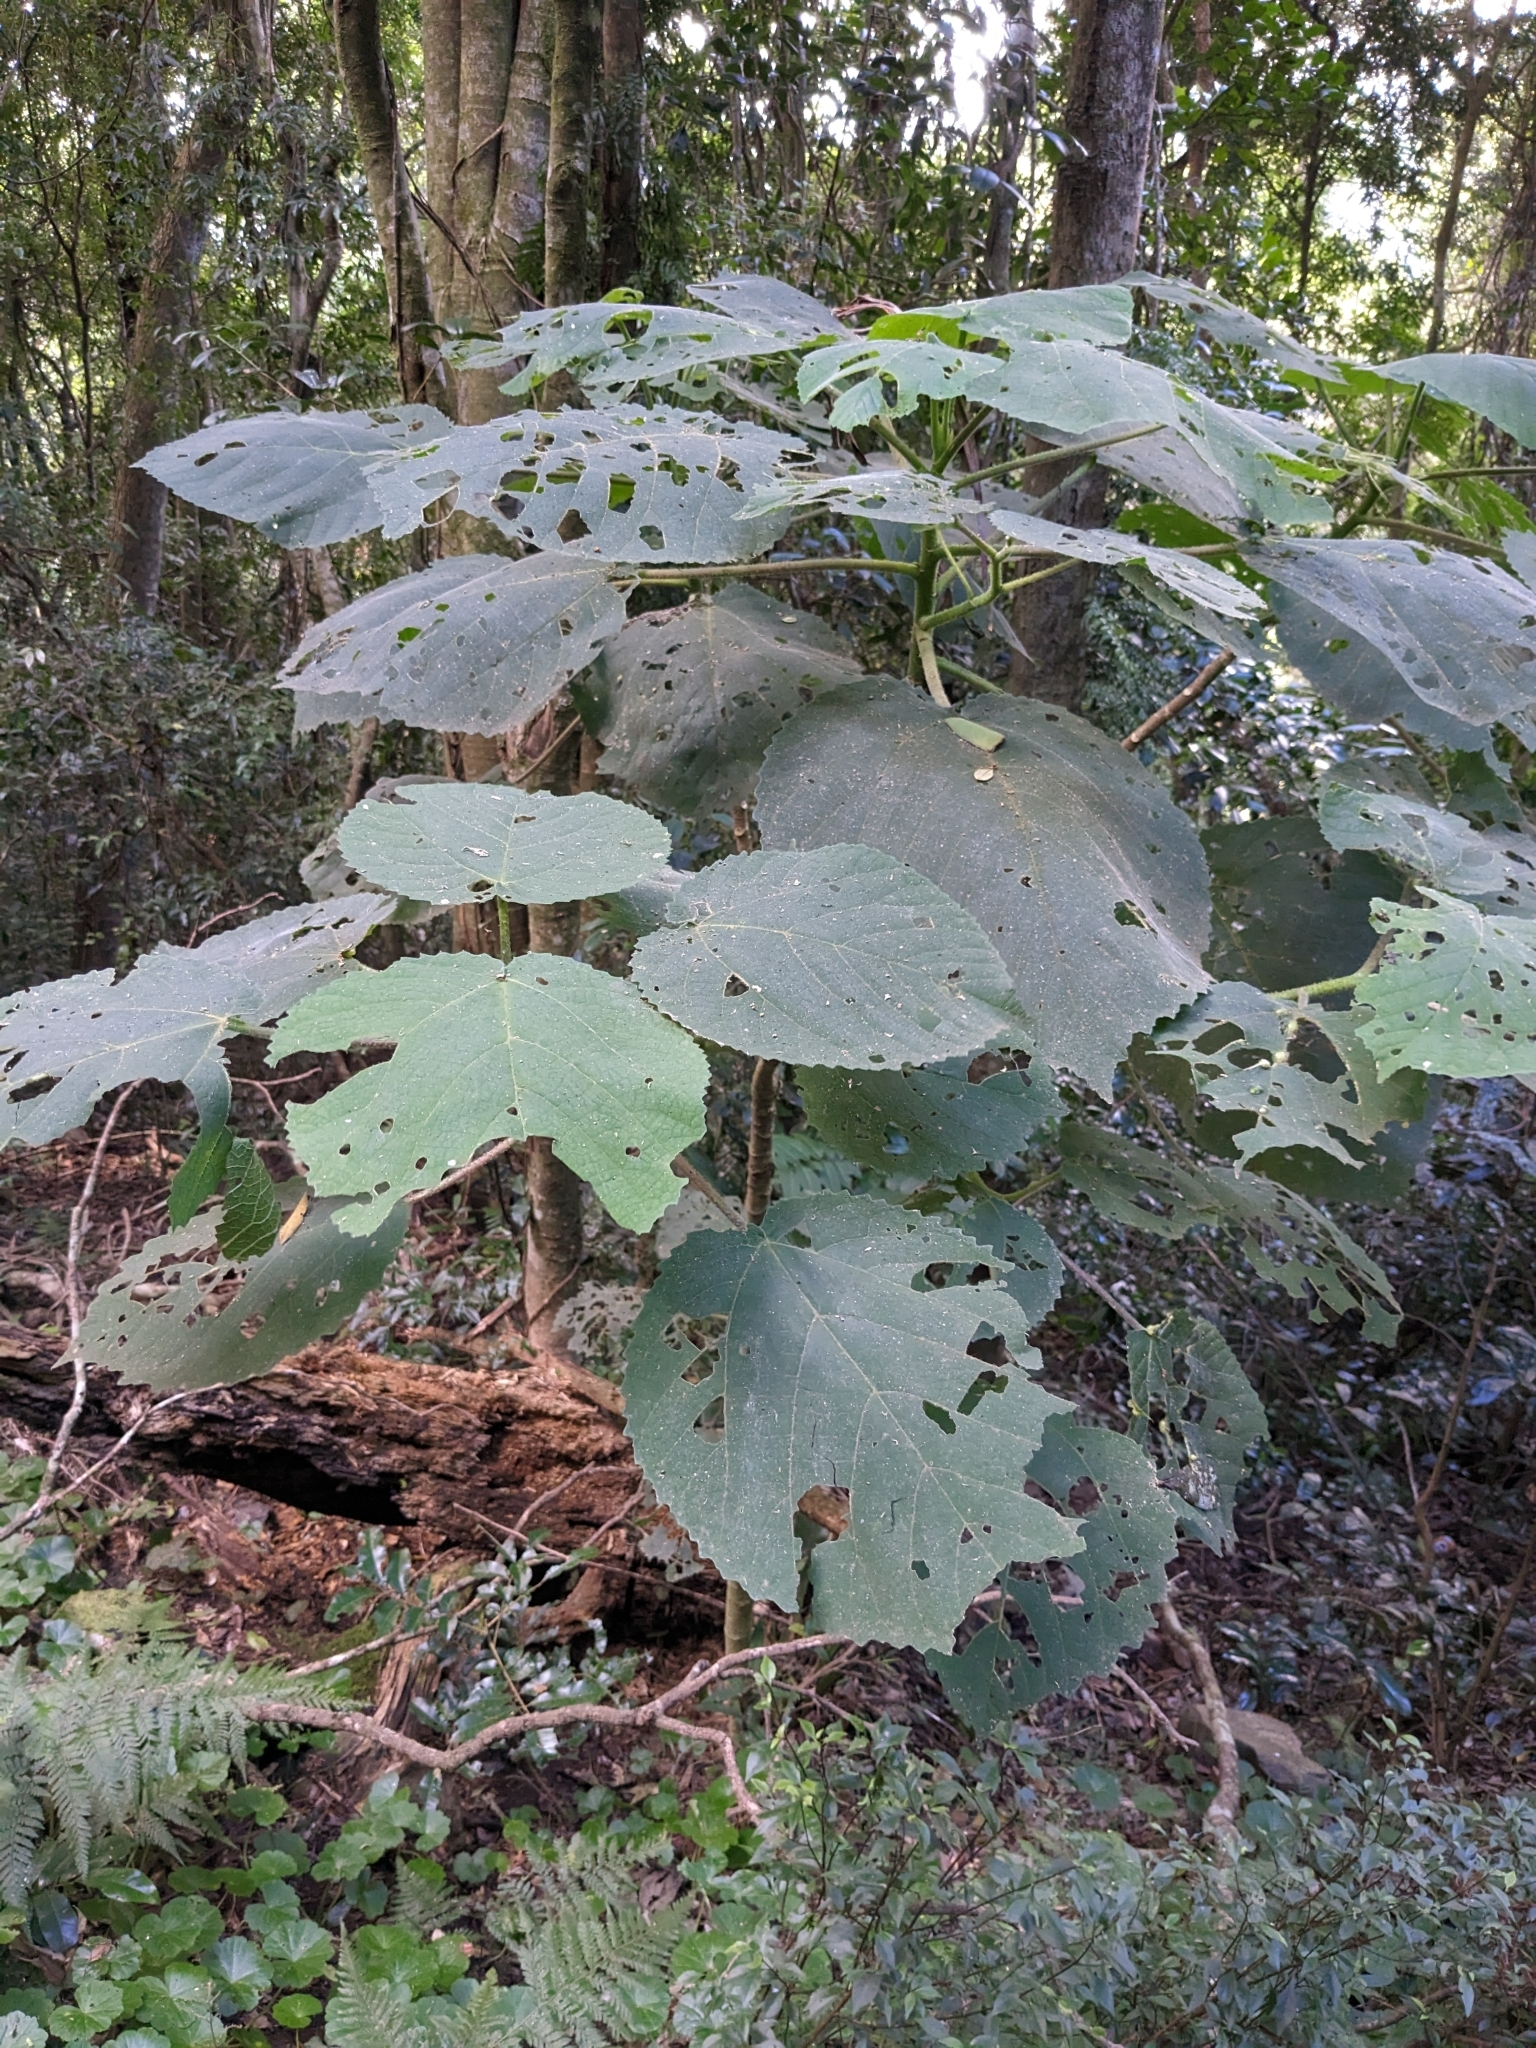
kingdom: Plantae
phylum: Tracheophyta
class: Magnoliopsida
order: Rosales
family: Urticaceae
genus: Dendrocnide
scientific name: Dendrocnide excelsa
